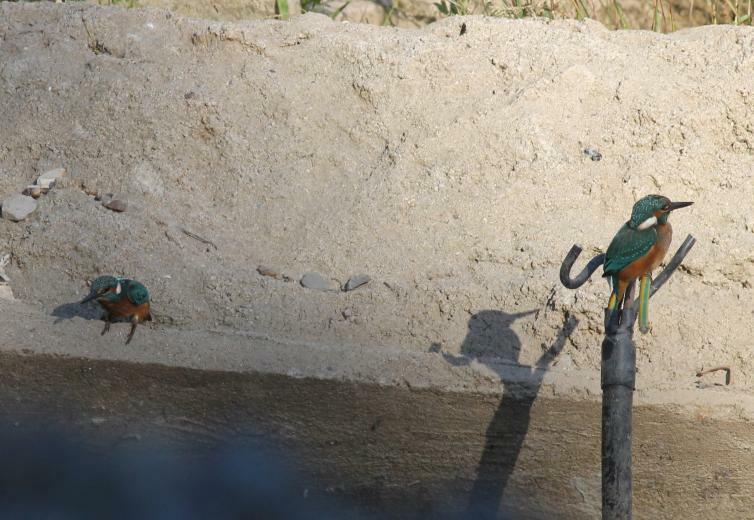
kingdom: Animalia
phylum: Chordata
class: Aves
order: Coraciiformes
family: Alcedinidae
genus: Alcedo
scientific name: Alcedo atthis
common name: Common kingfisher
